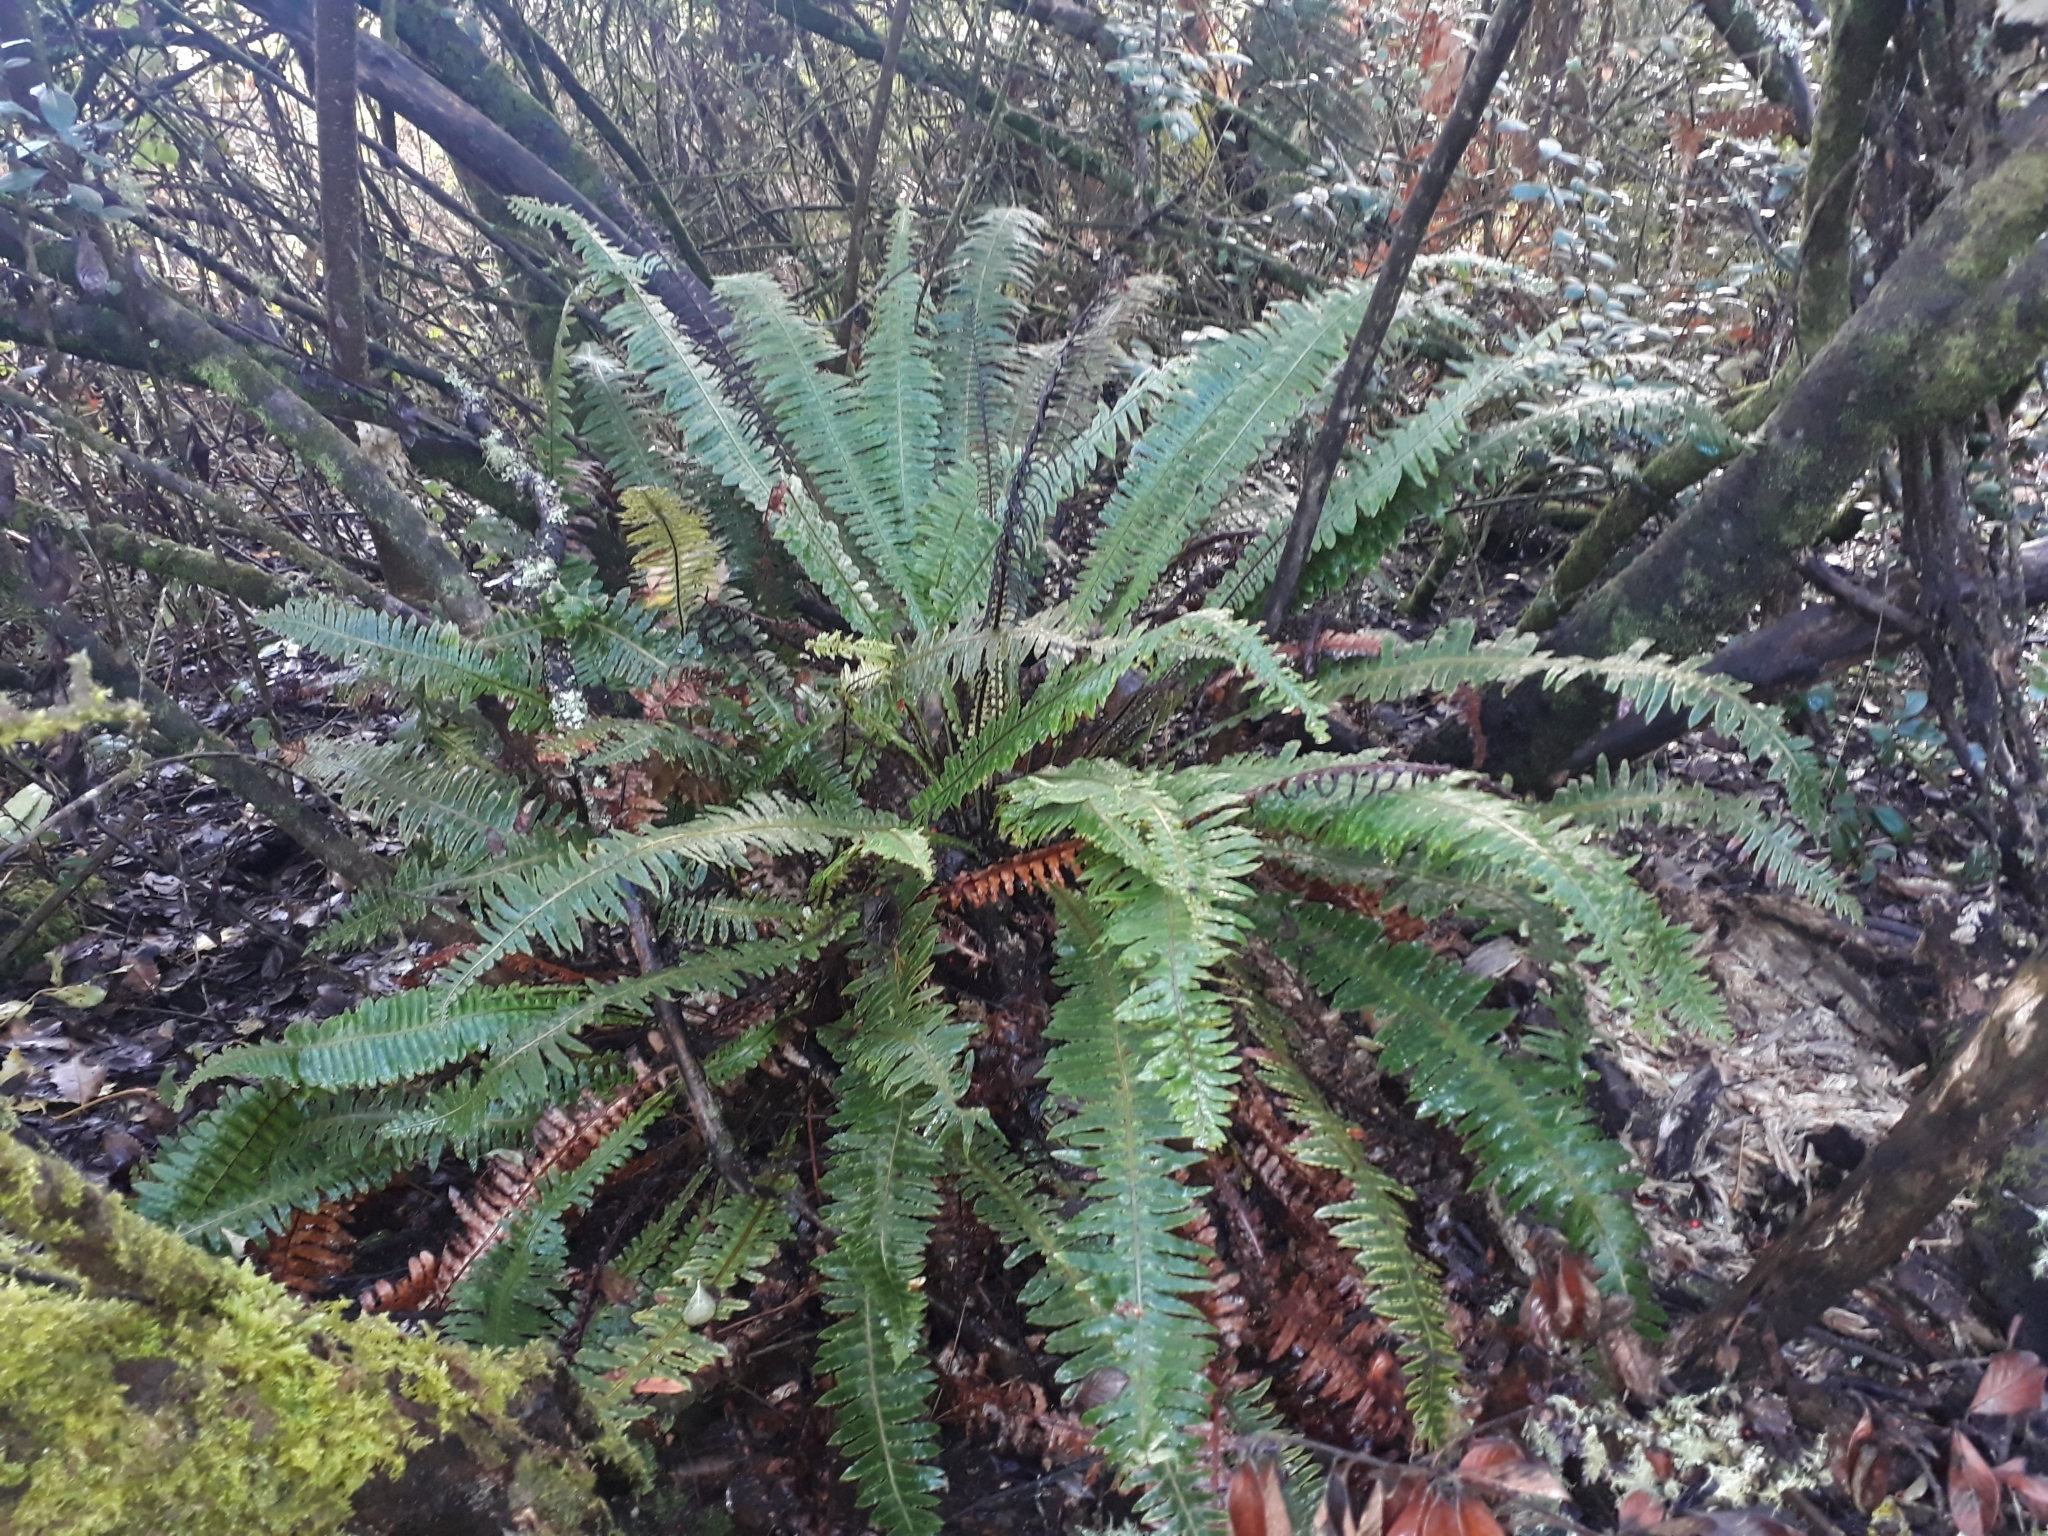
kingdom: Plantae
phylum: Tracheophyta
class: Polypodiopsida
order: Polypodiales
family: Blechnaceae
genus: Lomaria
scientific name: Lomaria discolor
